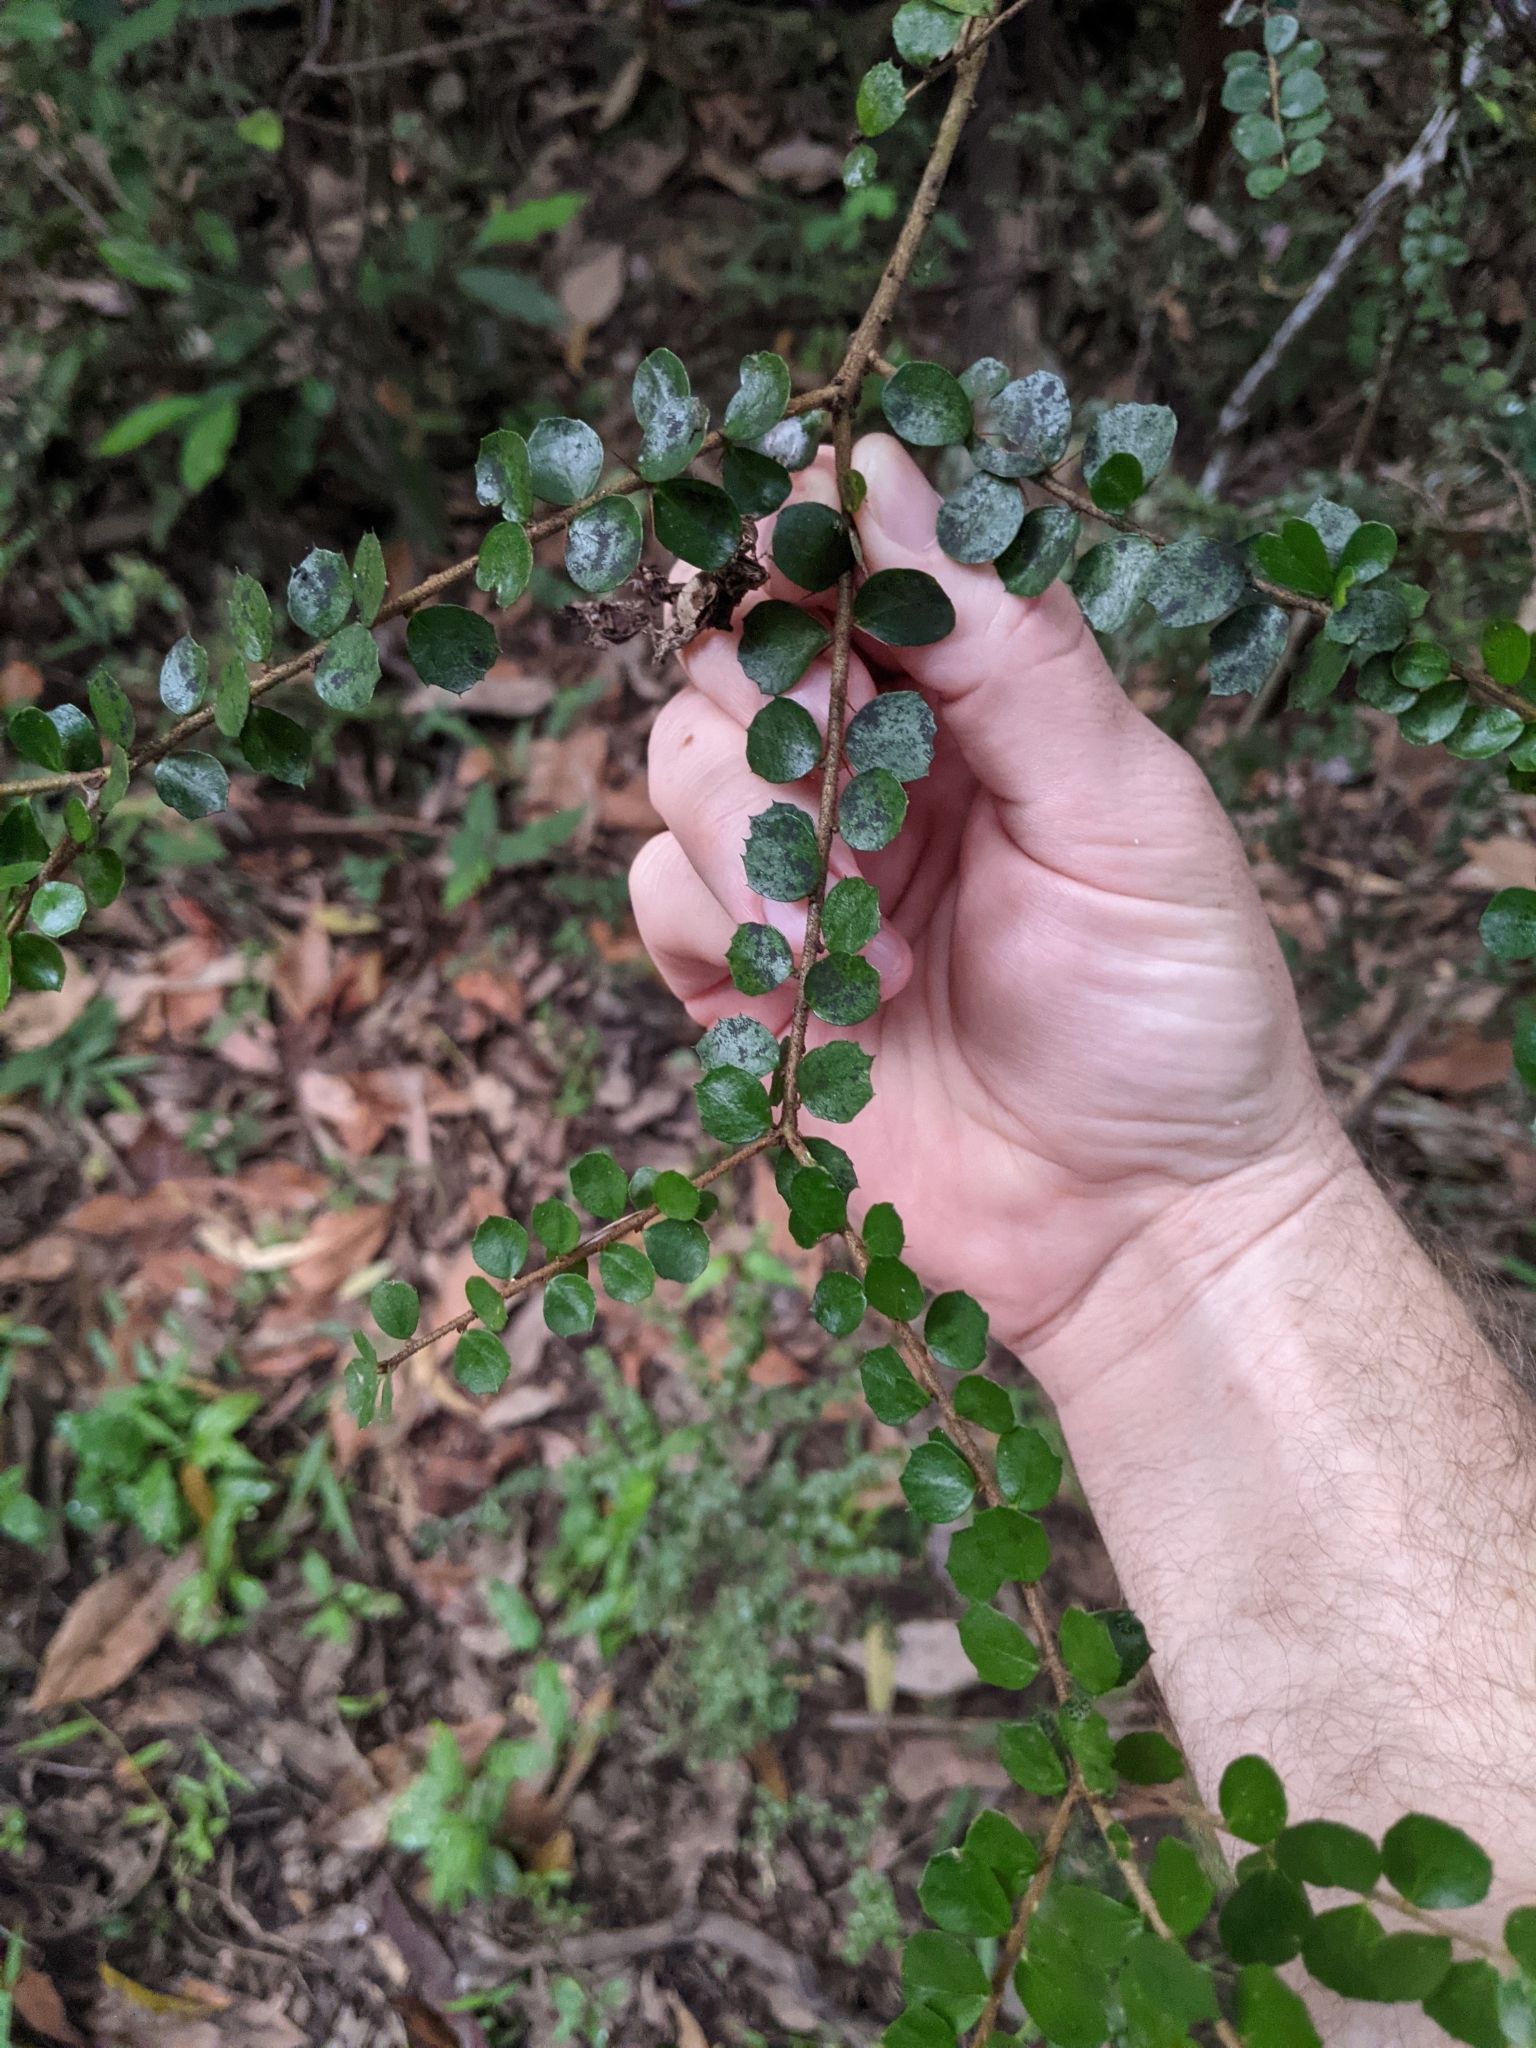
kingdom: Plantae
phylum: Tracheophyta
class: Magnoliopsida
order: Apiales
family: Pittosporaceae
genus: Pittosporum
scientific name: Pittosporum multiflorum
